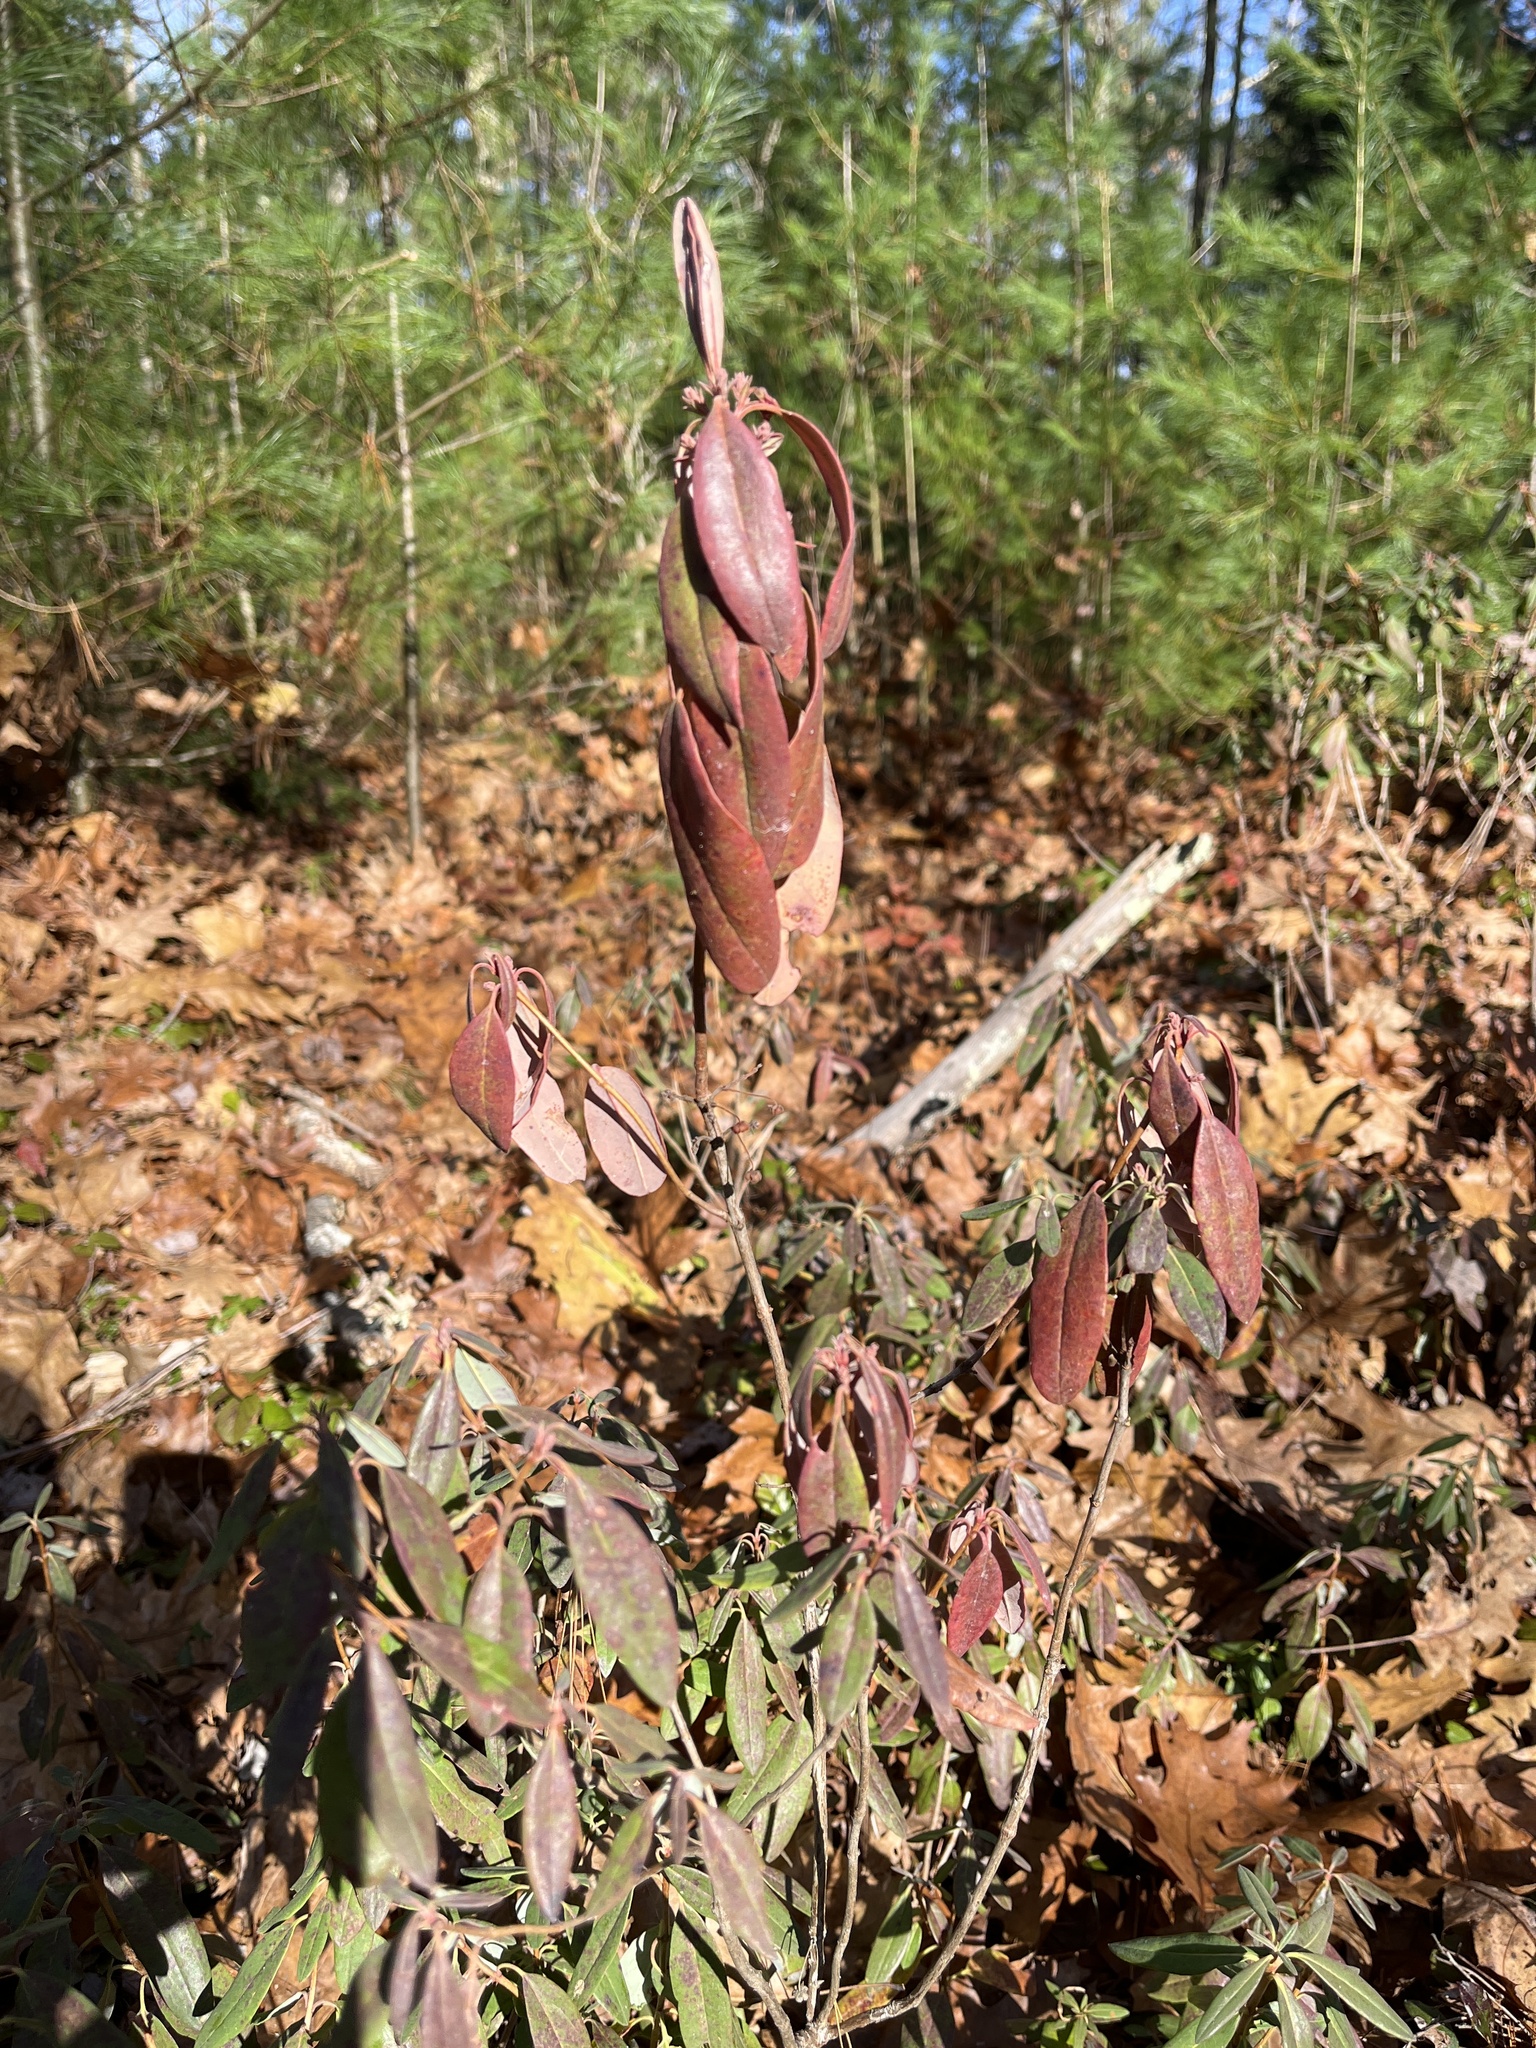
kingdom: Plantae
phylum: Tracheophyta
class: Magnoliopsida
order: Ericales
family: Ericaceae
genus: Kalmia
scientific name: Kalmia angustifolia
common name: Sheep-laurel
